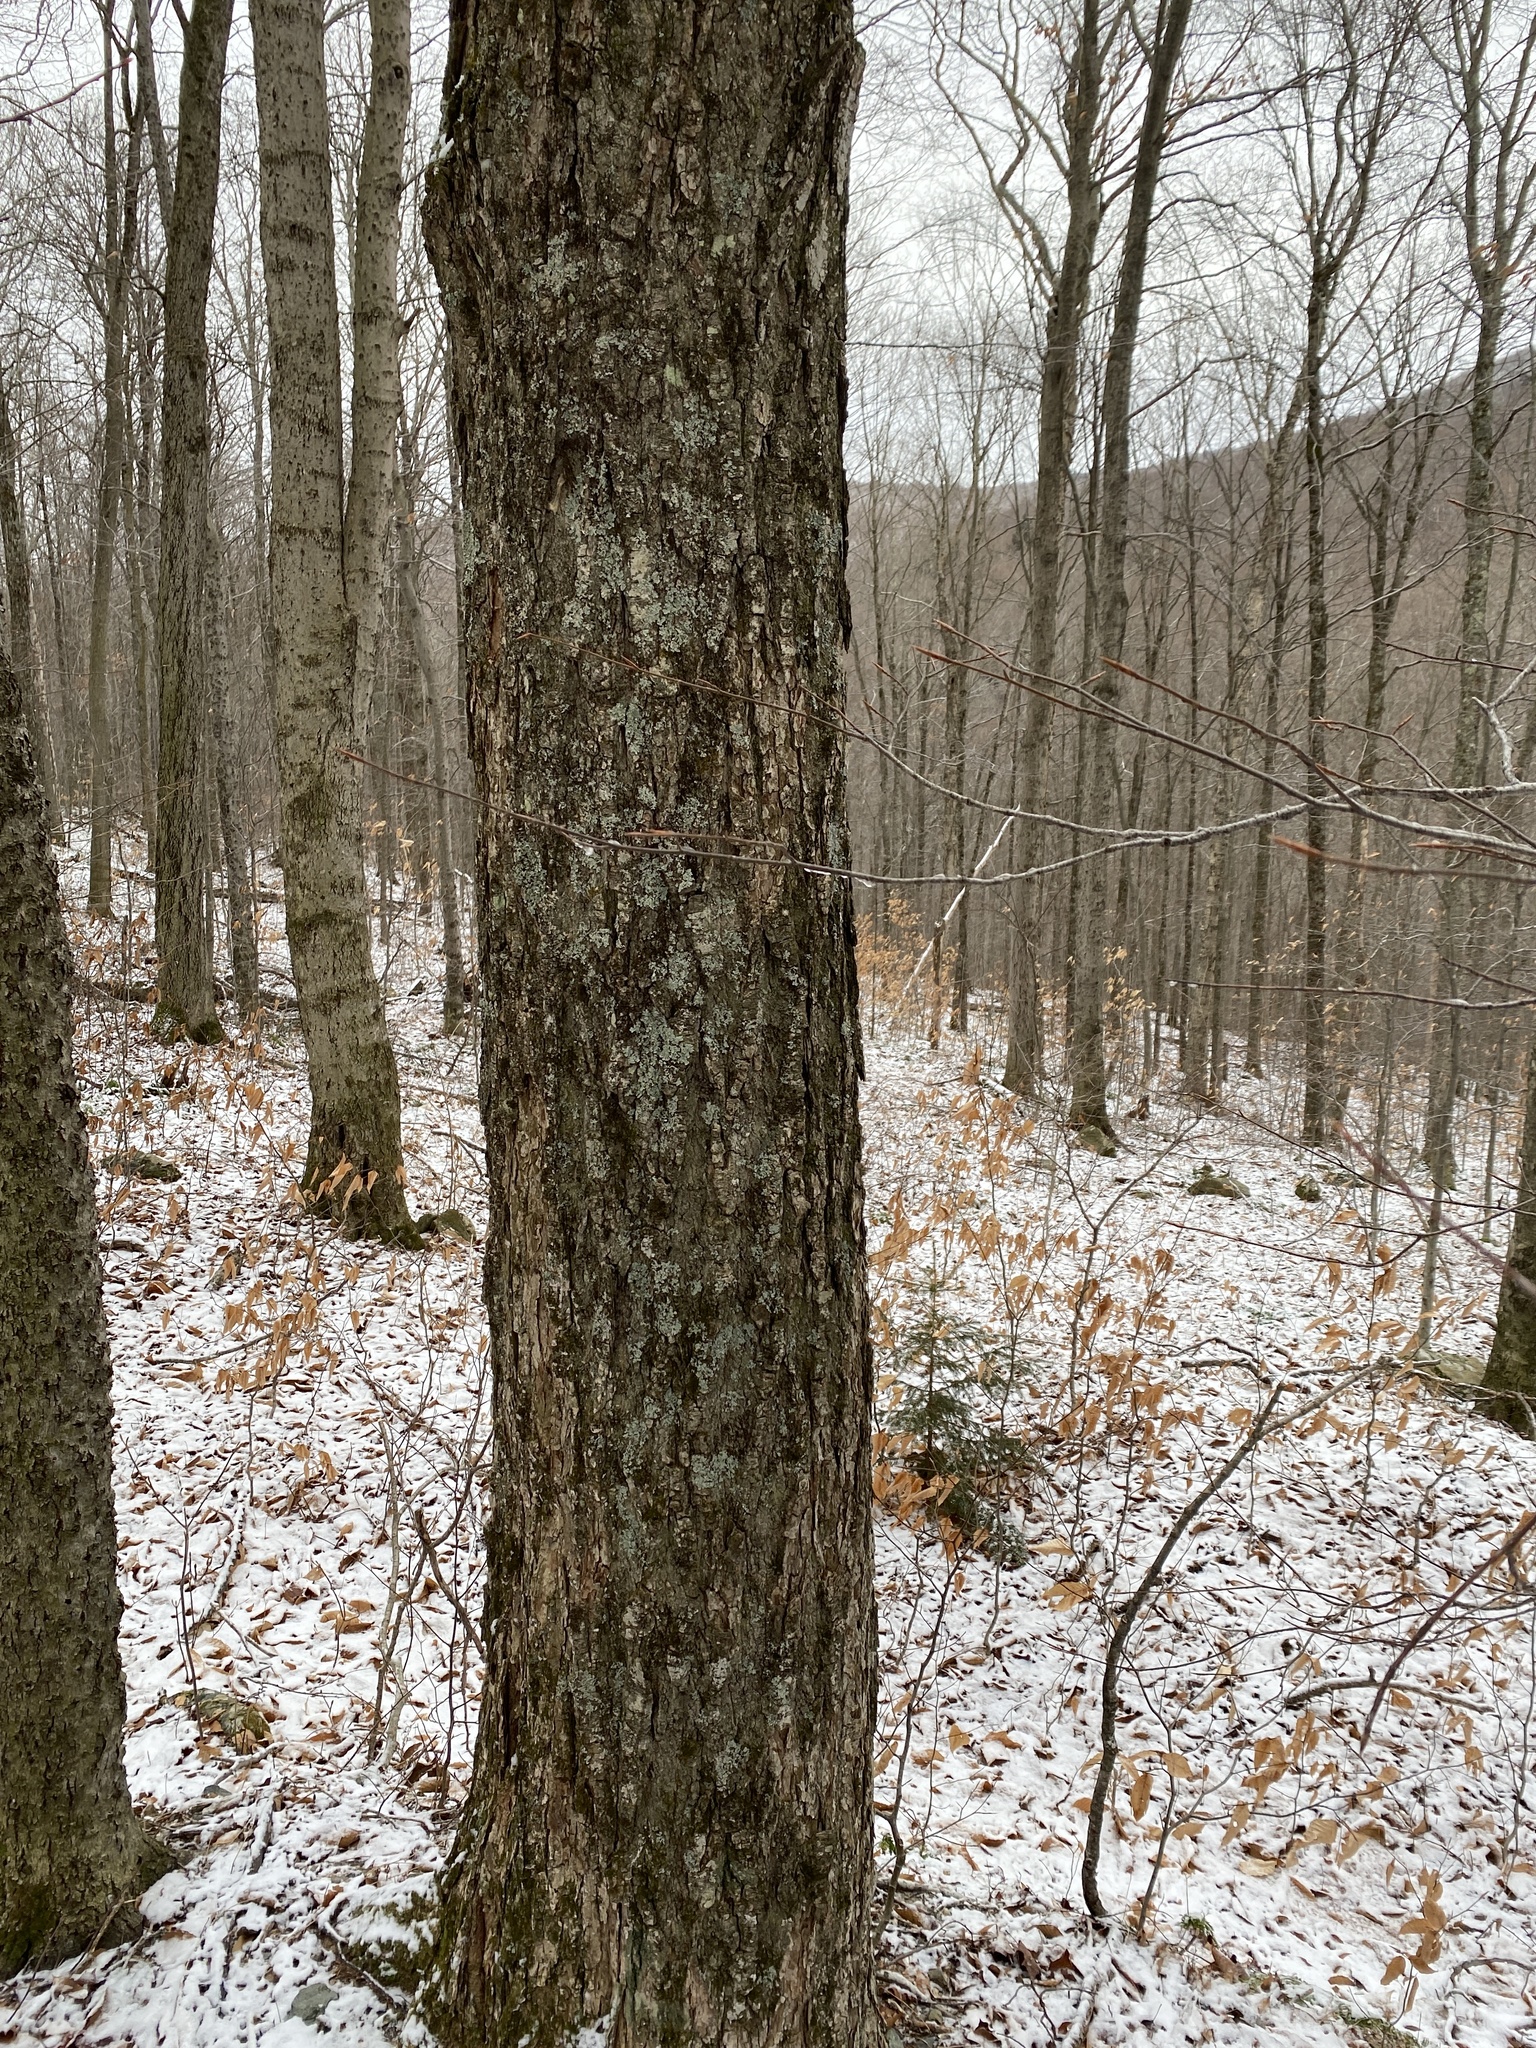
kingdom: Plantae
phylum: Tracheophyta
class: Magnoliopsida
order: Sapindales
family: Sapindaceae
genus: Acer
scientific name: Acer saccharum
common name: Sugar maple
